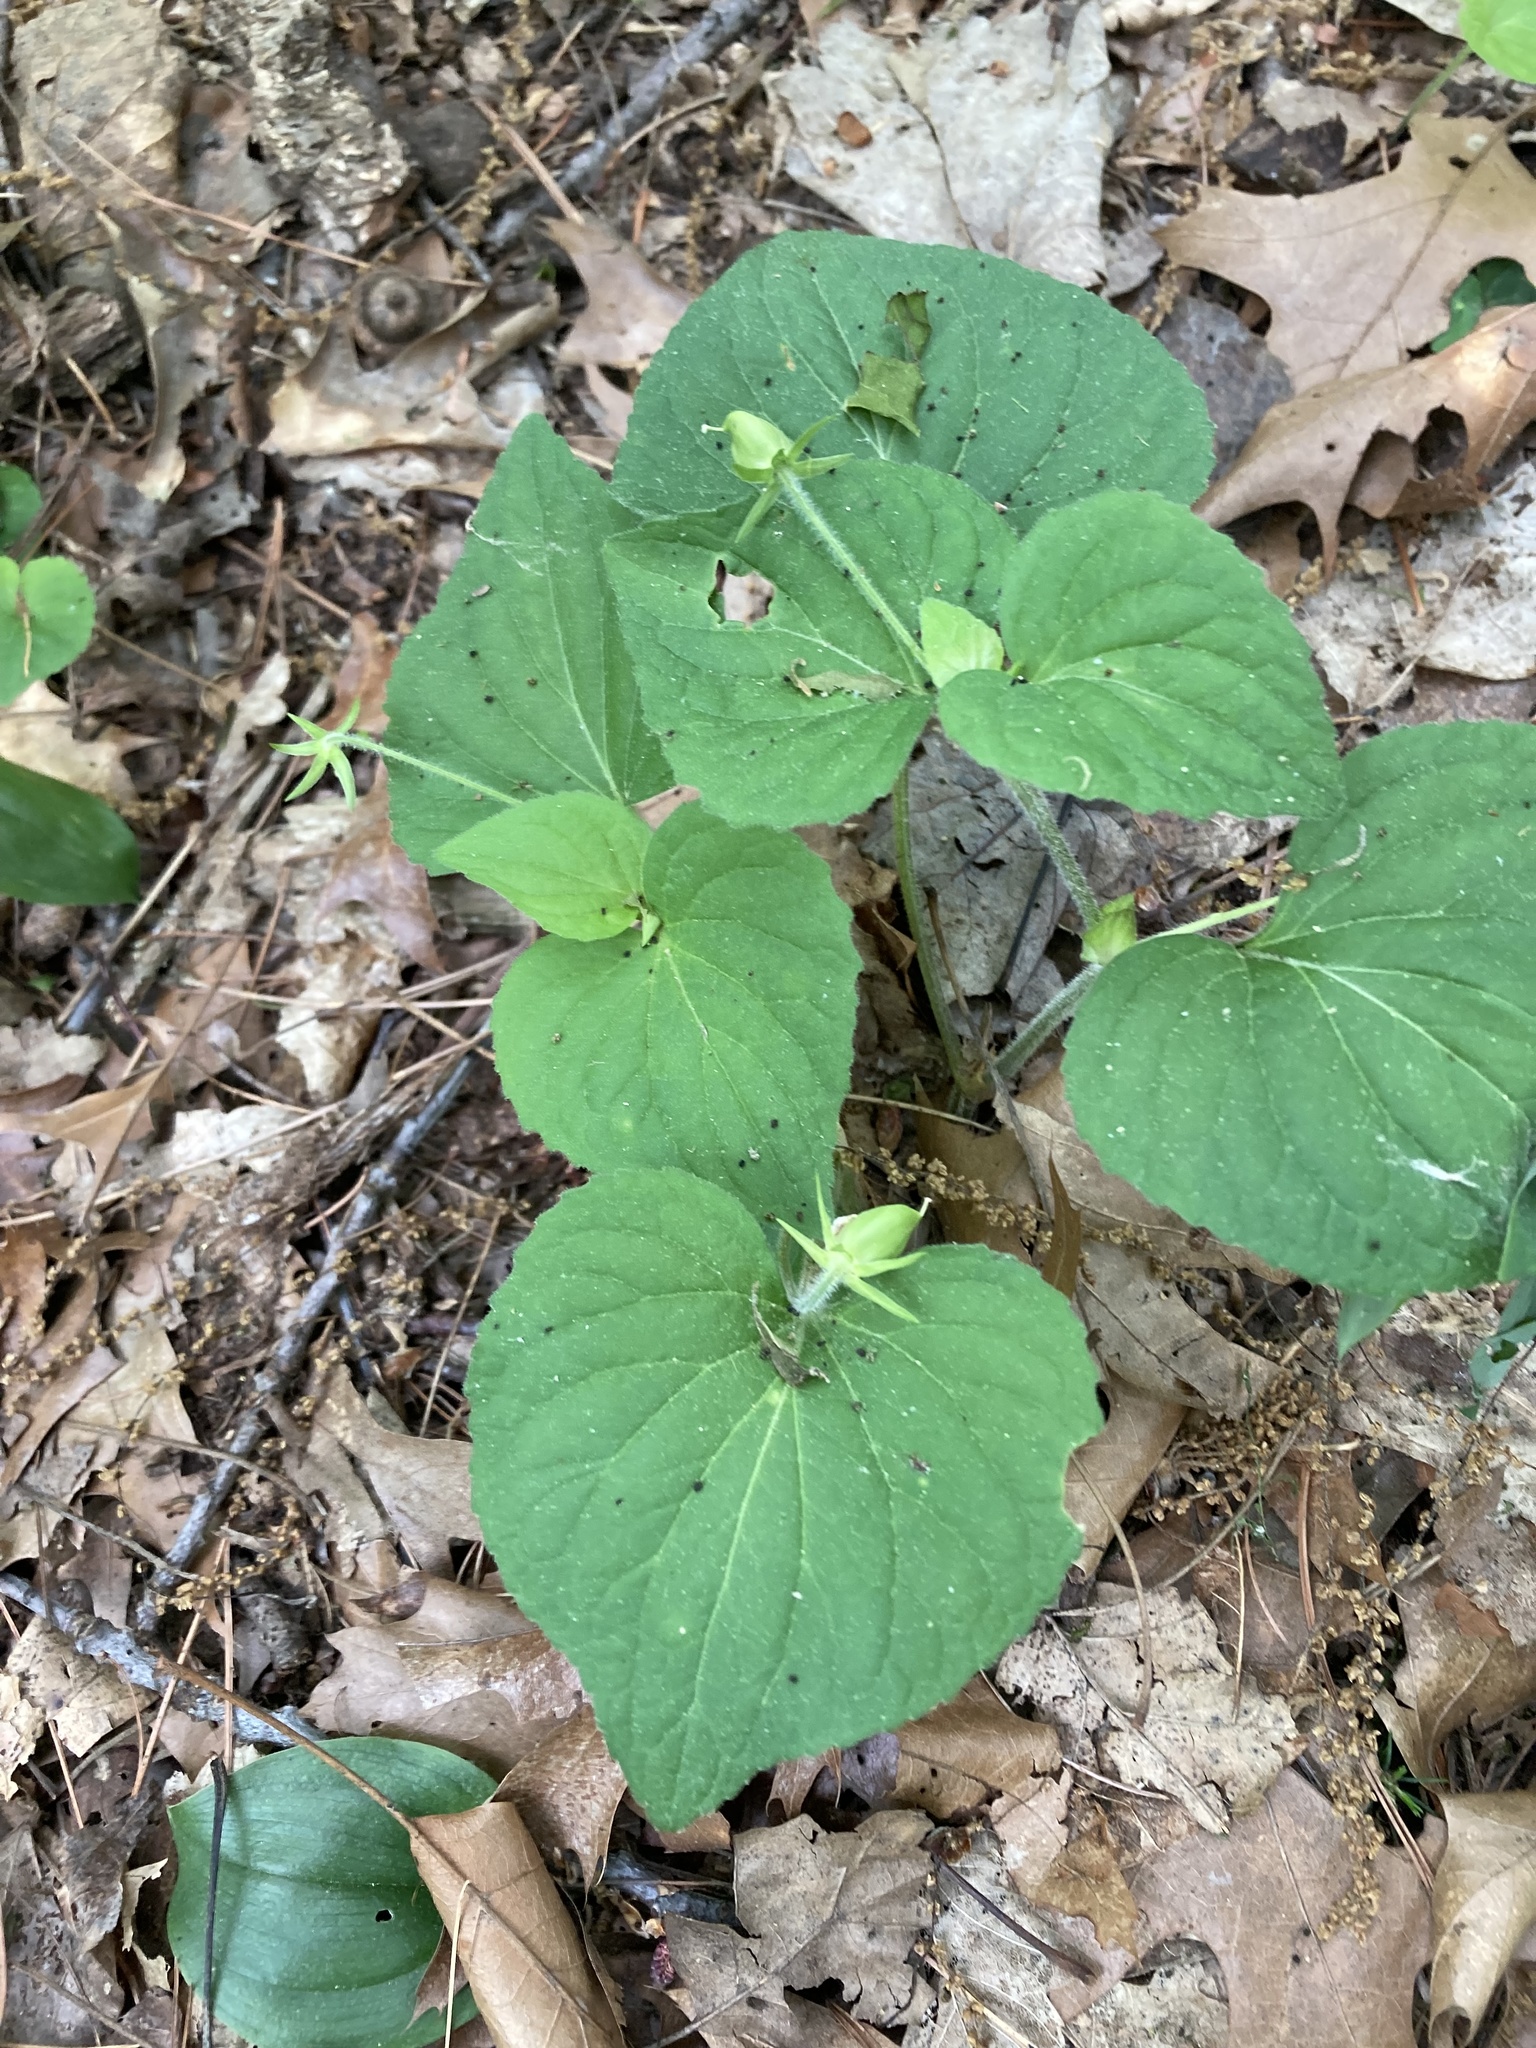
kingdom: Plantae
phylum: Tracheophyta
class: Magnoliopsida
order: Malpighiales
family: Violaceae
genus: Viola
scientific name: Viola eriocarpa
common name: Smooth yellow violet
